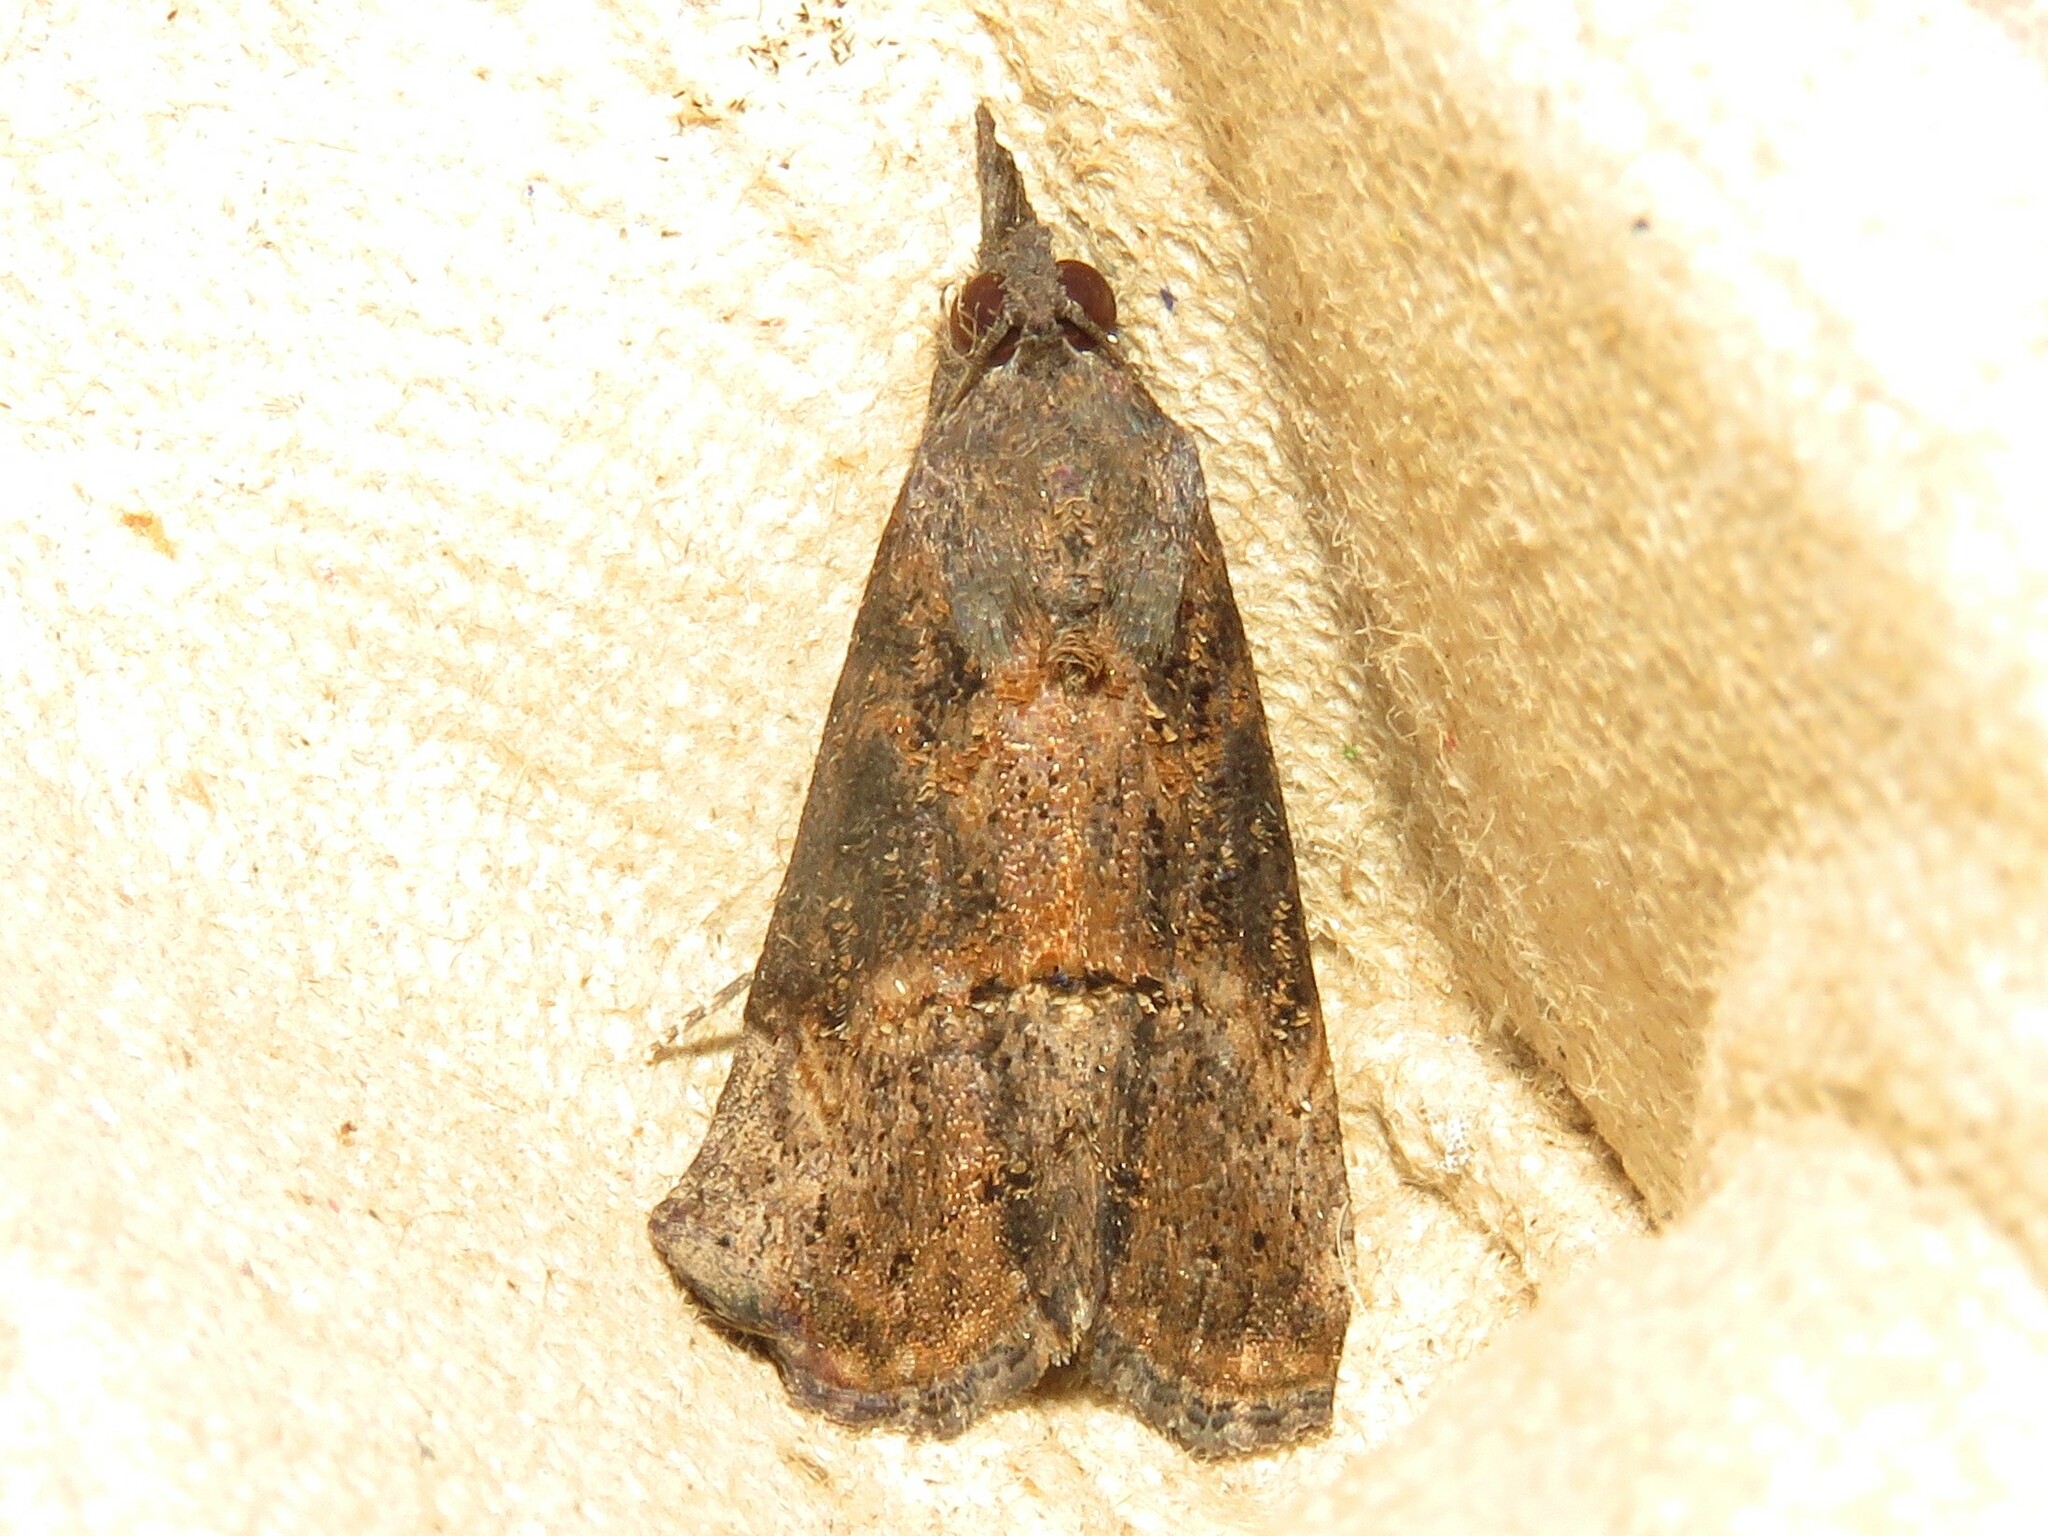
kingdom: Animalia
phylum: Arthropoda
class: Insecta
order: Lepidoptera
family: Erebidae
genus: Hypena
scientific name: Hypena scabra
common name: Green cloverworm
